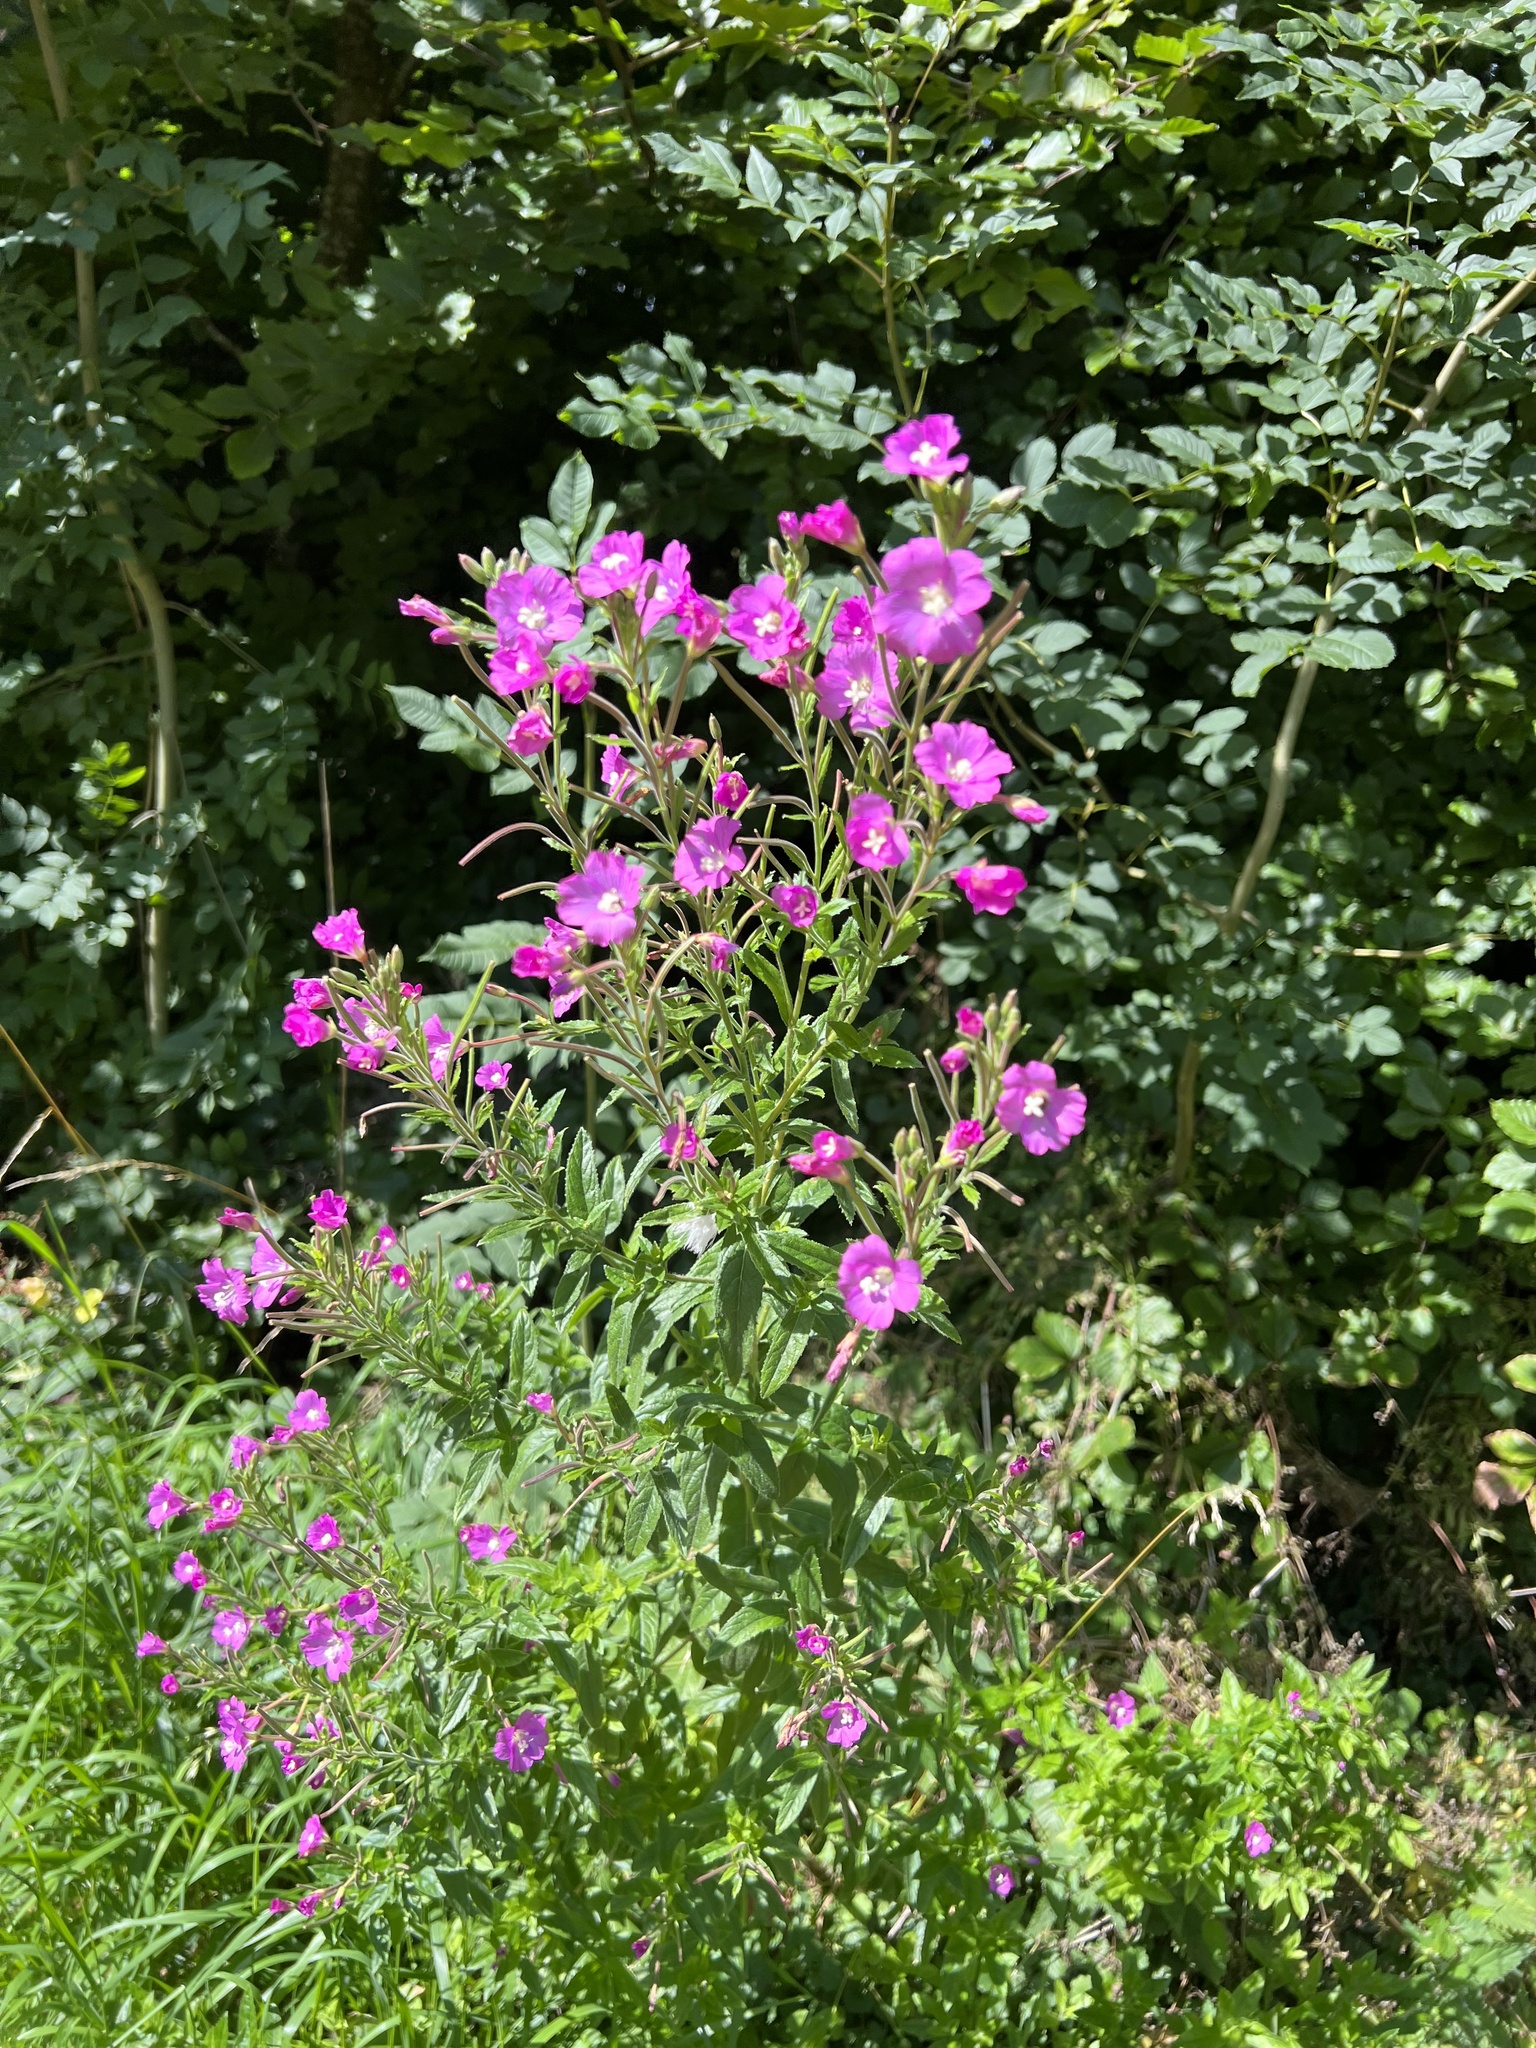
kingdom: Plantae
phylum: Tracheophyta
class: Magnoliopsida
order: Myrtales
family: Onagraceae
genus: Epilobium
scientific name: Epilobium hirsutum
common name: Great willowherb
